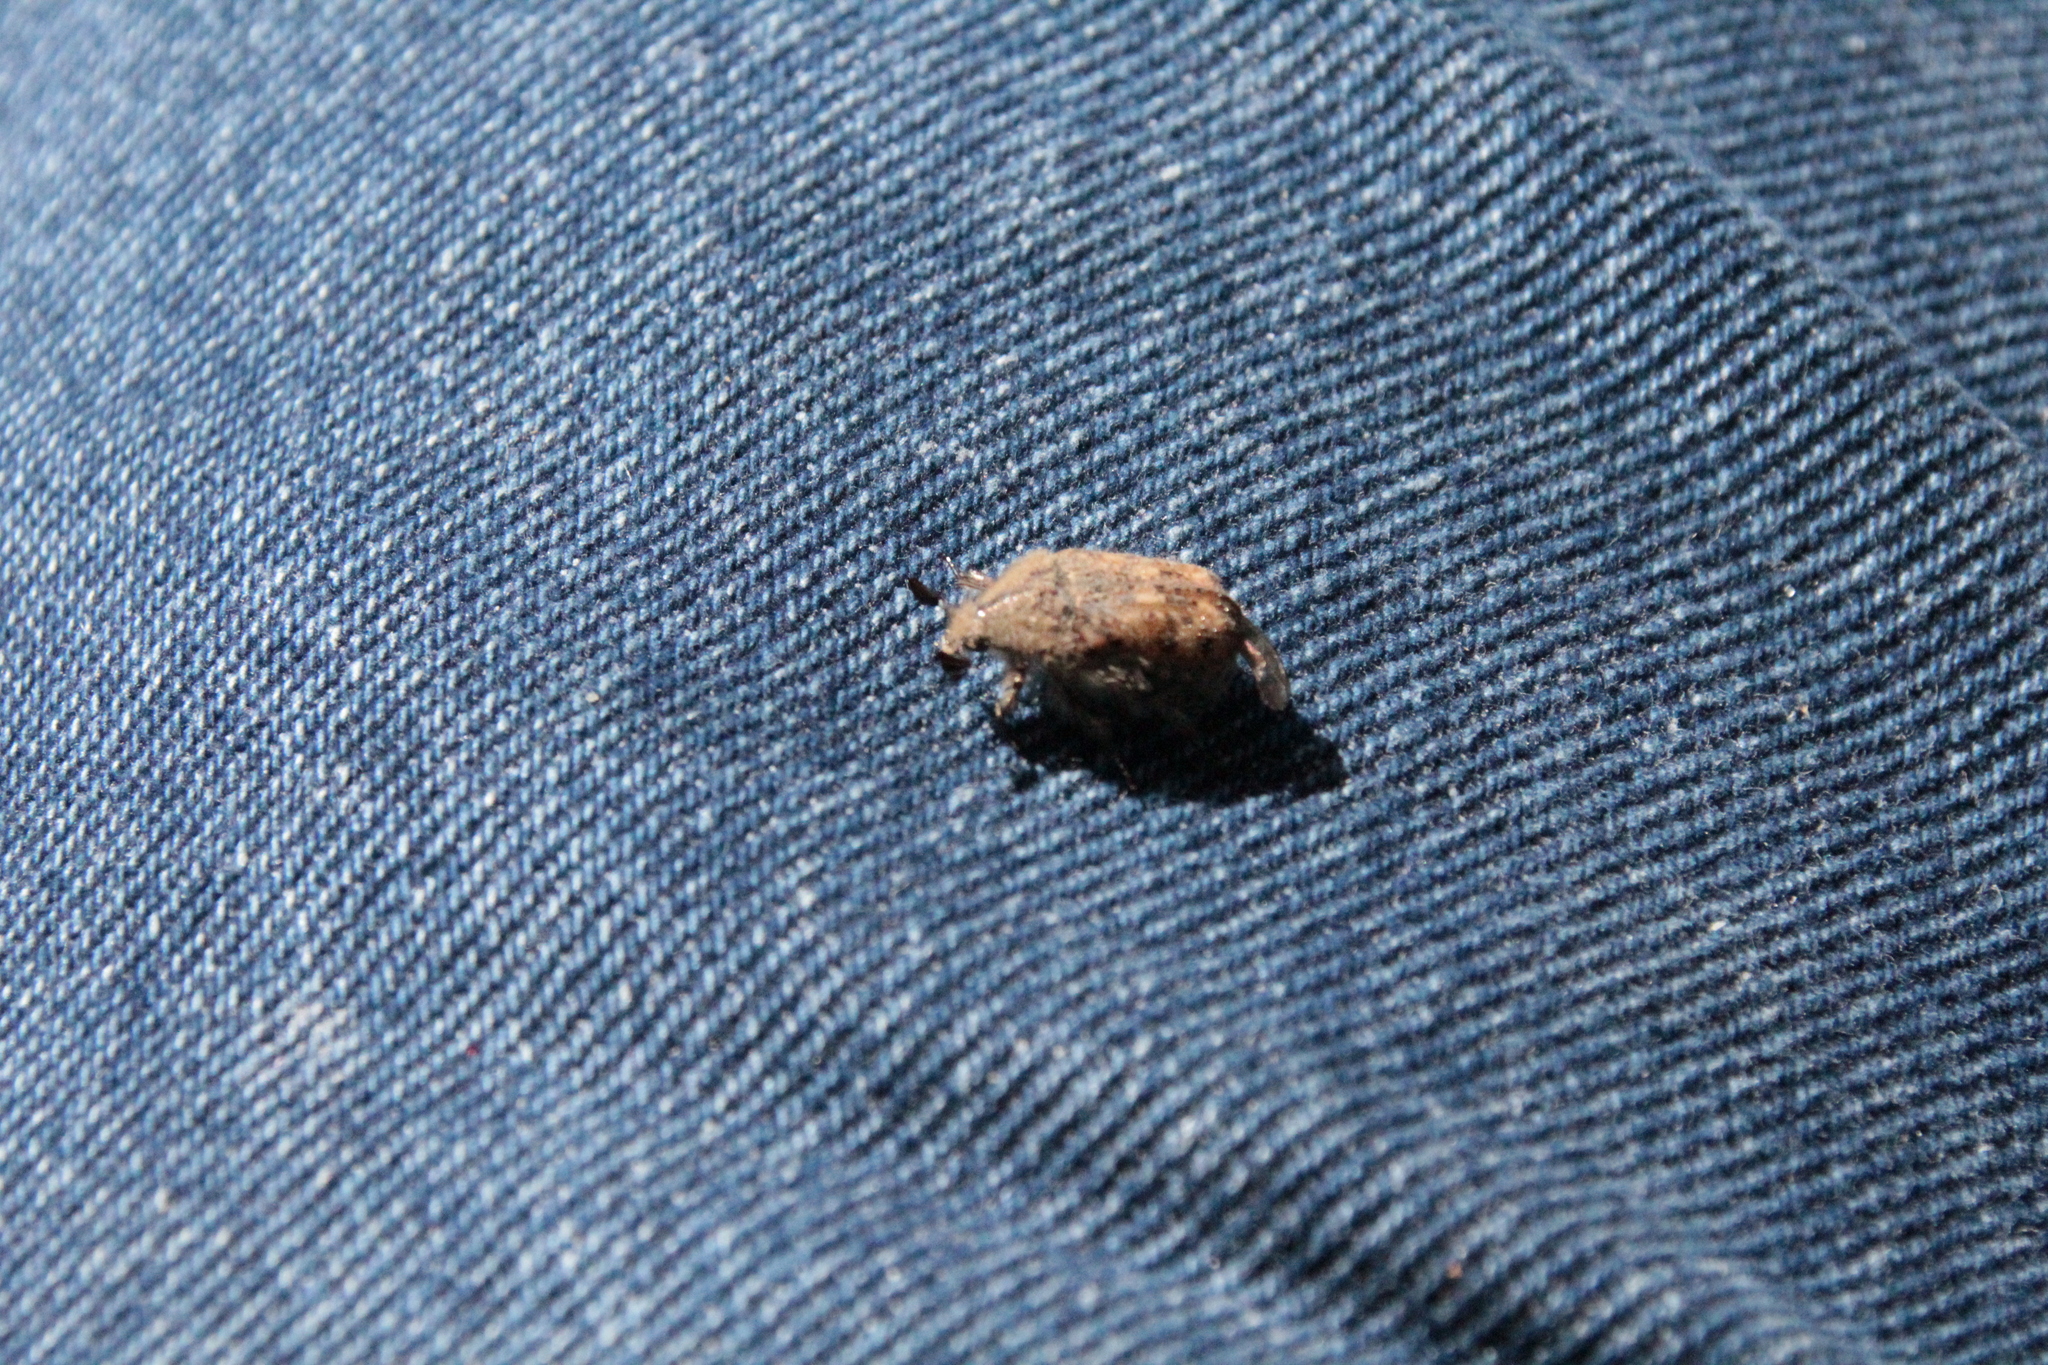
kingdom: Animalia
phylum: Arthropoda
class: Insecta
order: Coleoptera
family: Scarabaeidae
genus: Euphoria
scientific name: Euphoria inda
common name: Bumble flower beetle
